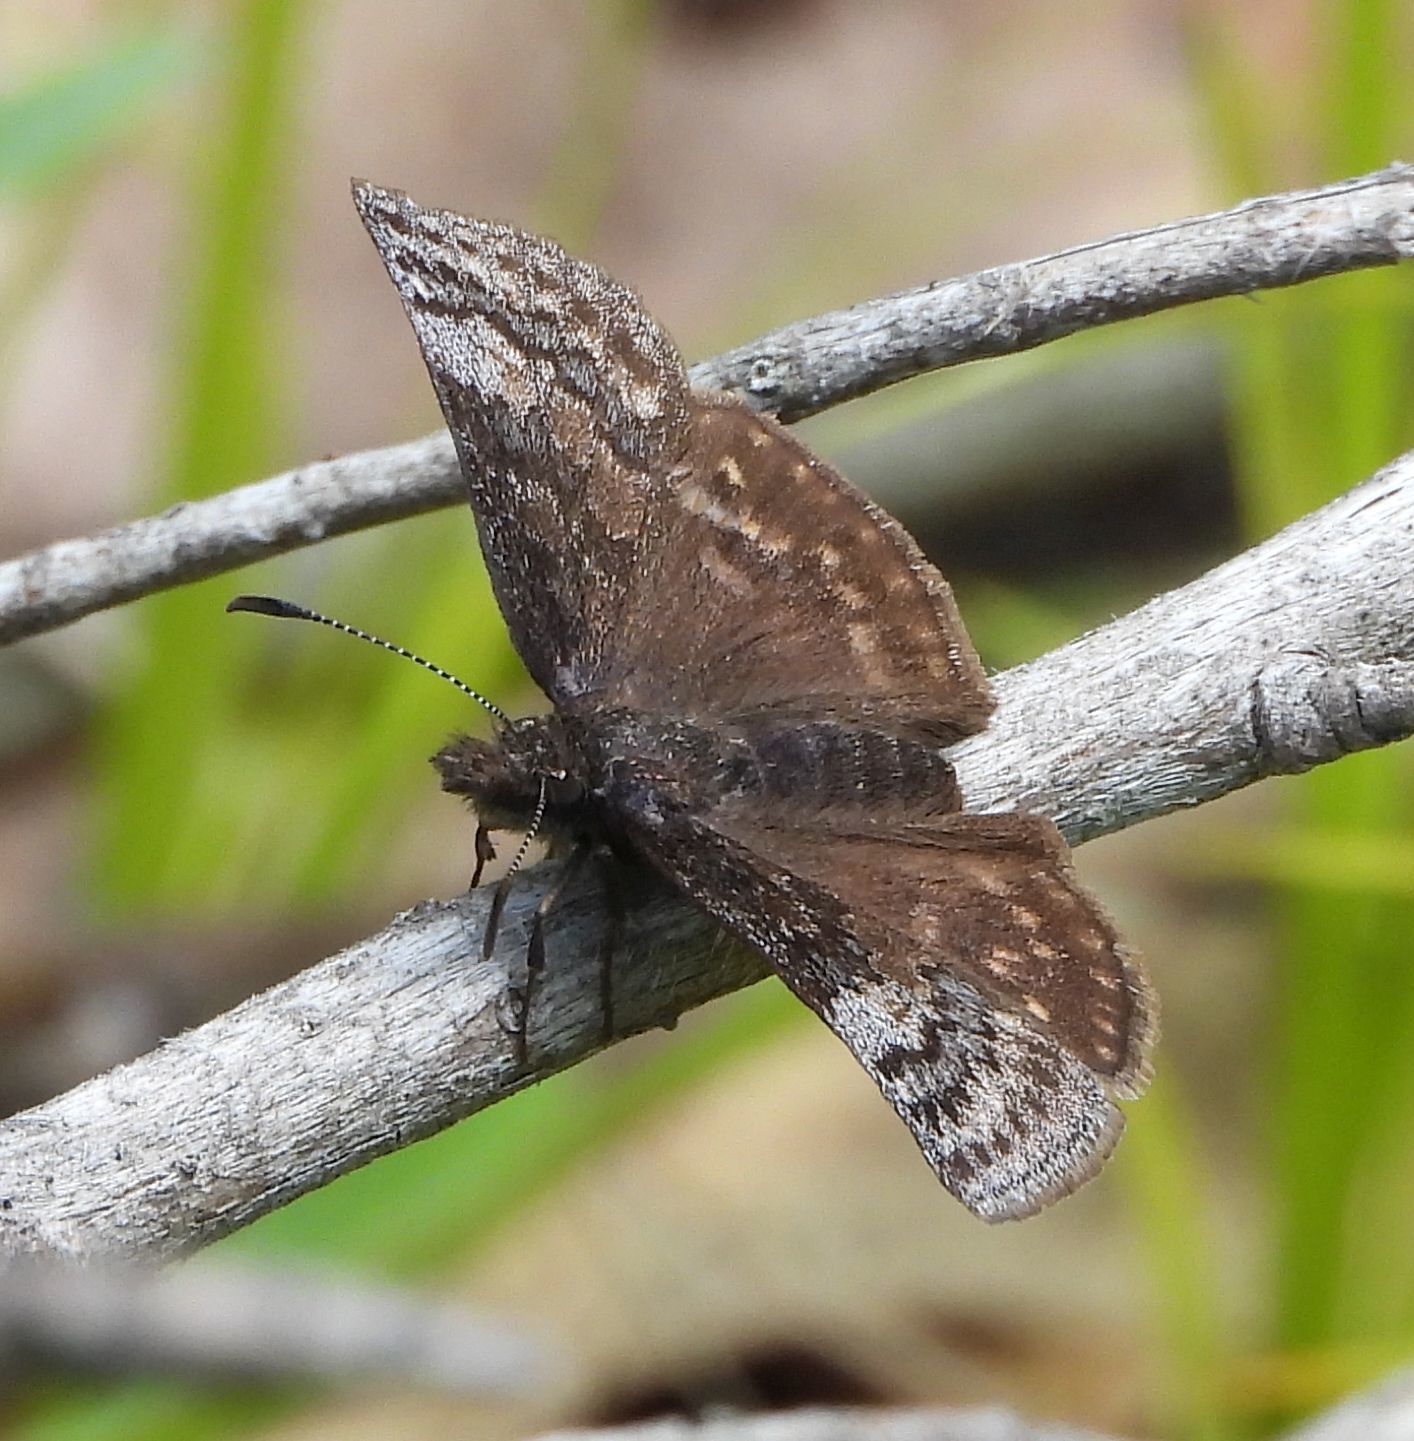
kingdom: Animalia
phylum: Arthropoda
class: Insecta
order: Lepidoptera
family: Hesperiidae
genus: Erynnis
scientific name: Erynnis icelus
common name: Dreamy duskywing
